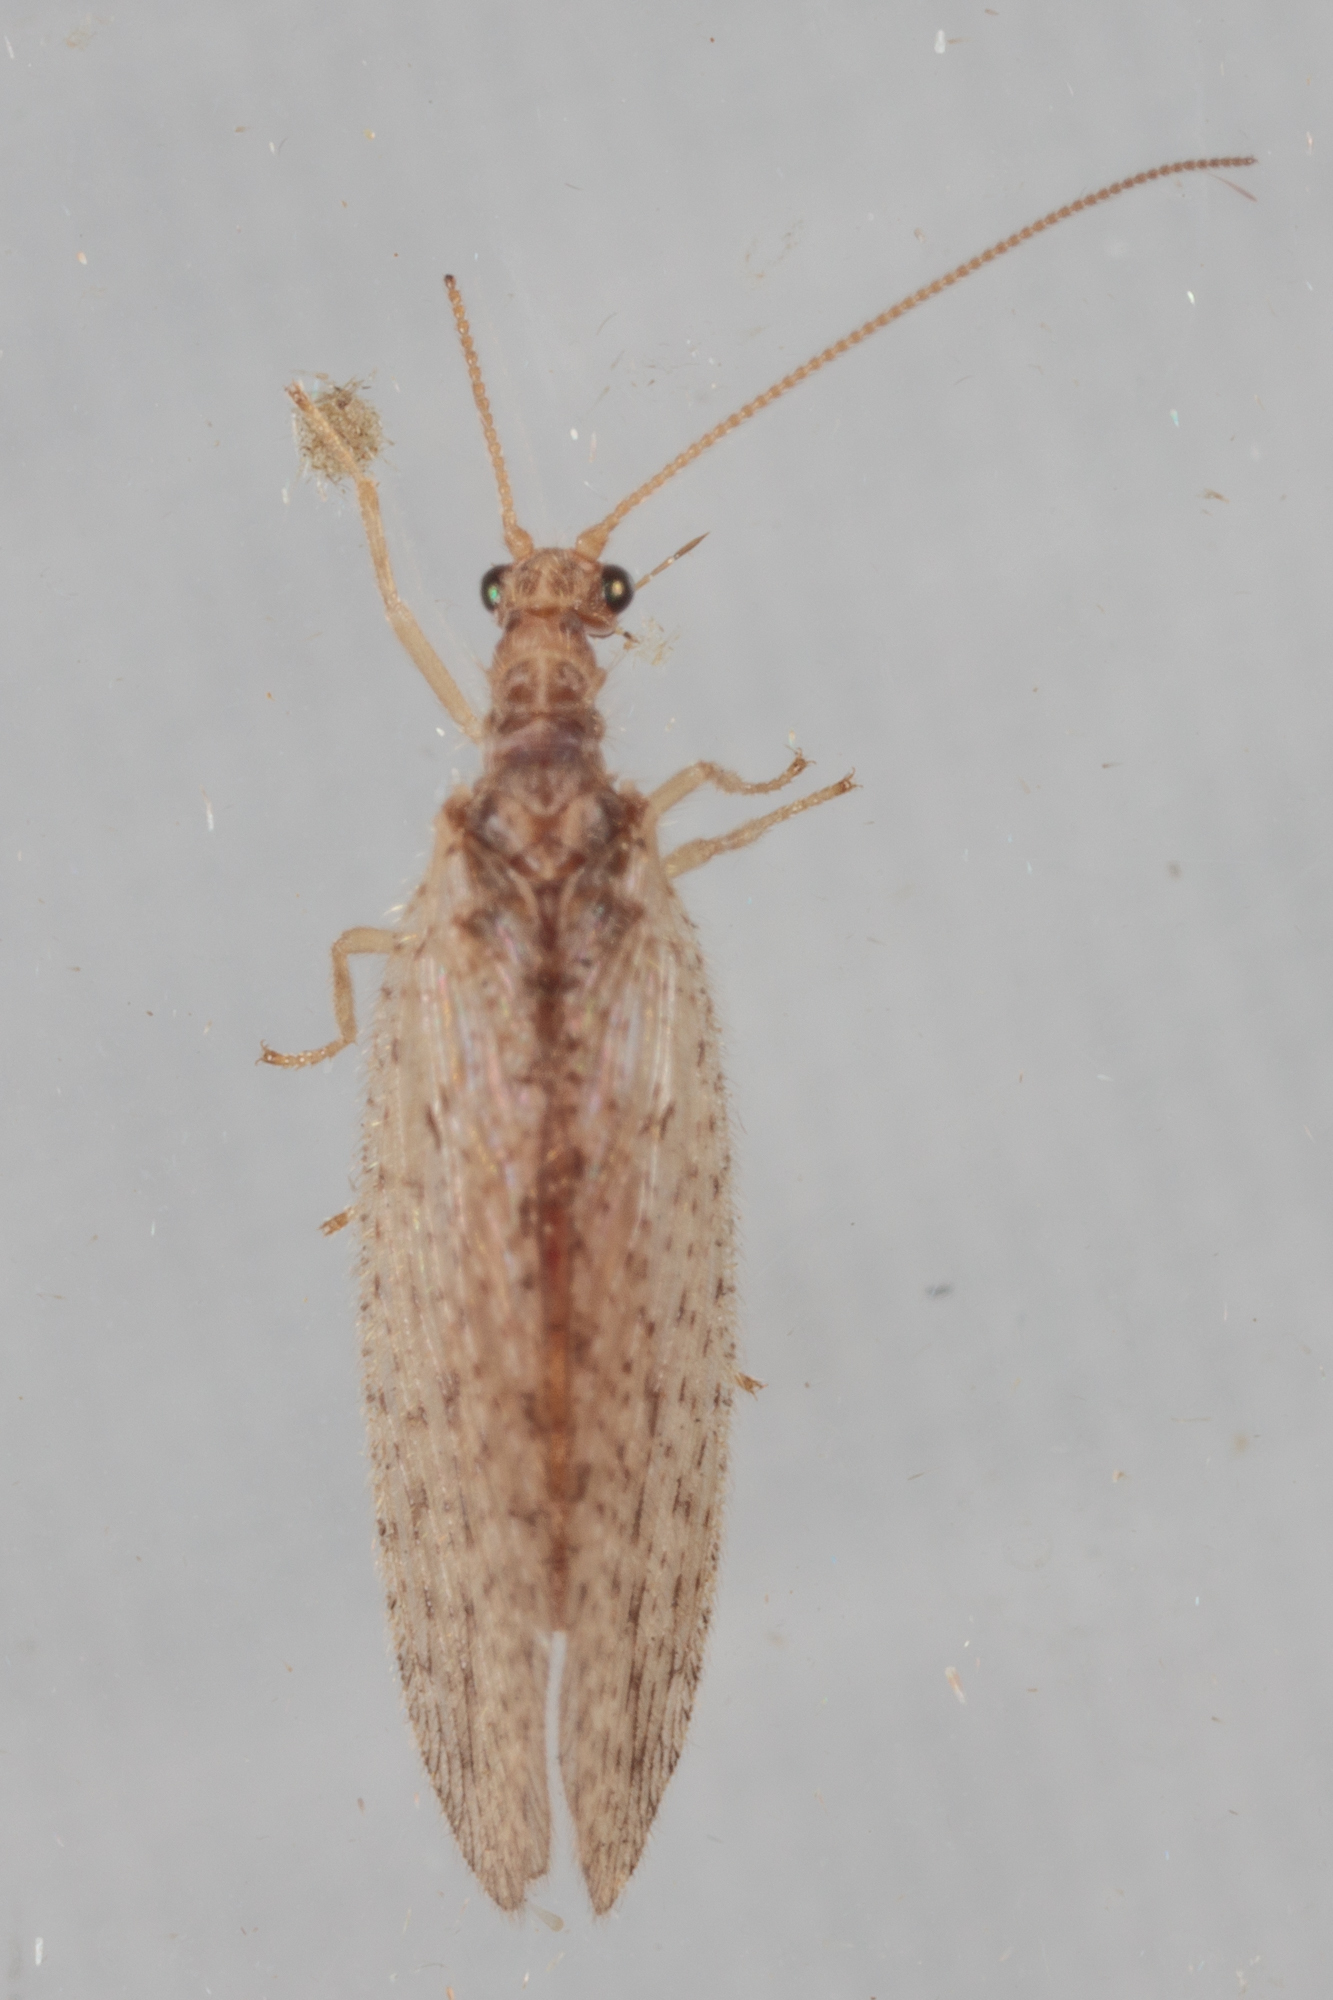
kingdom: Animalia
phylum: Arthropoda
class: Insecta
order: Neuroptera
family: Hemerobiidae
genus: Micromus
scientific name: Micromus subanticus
